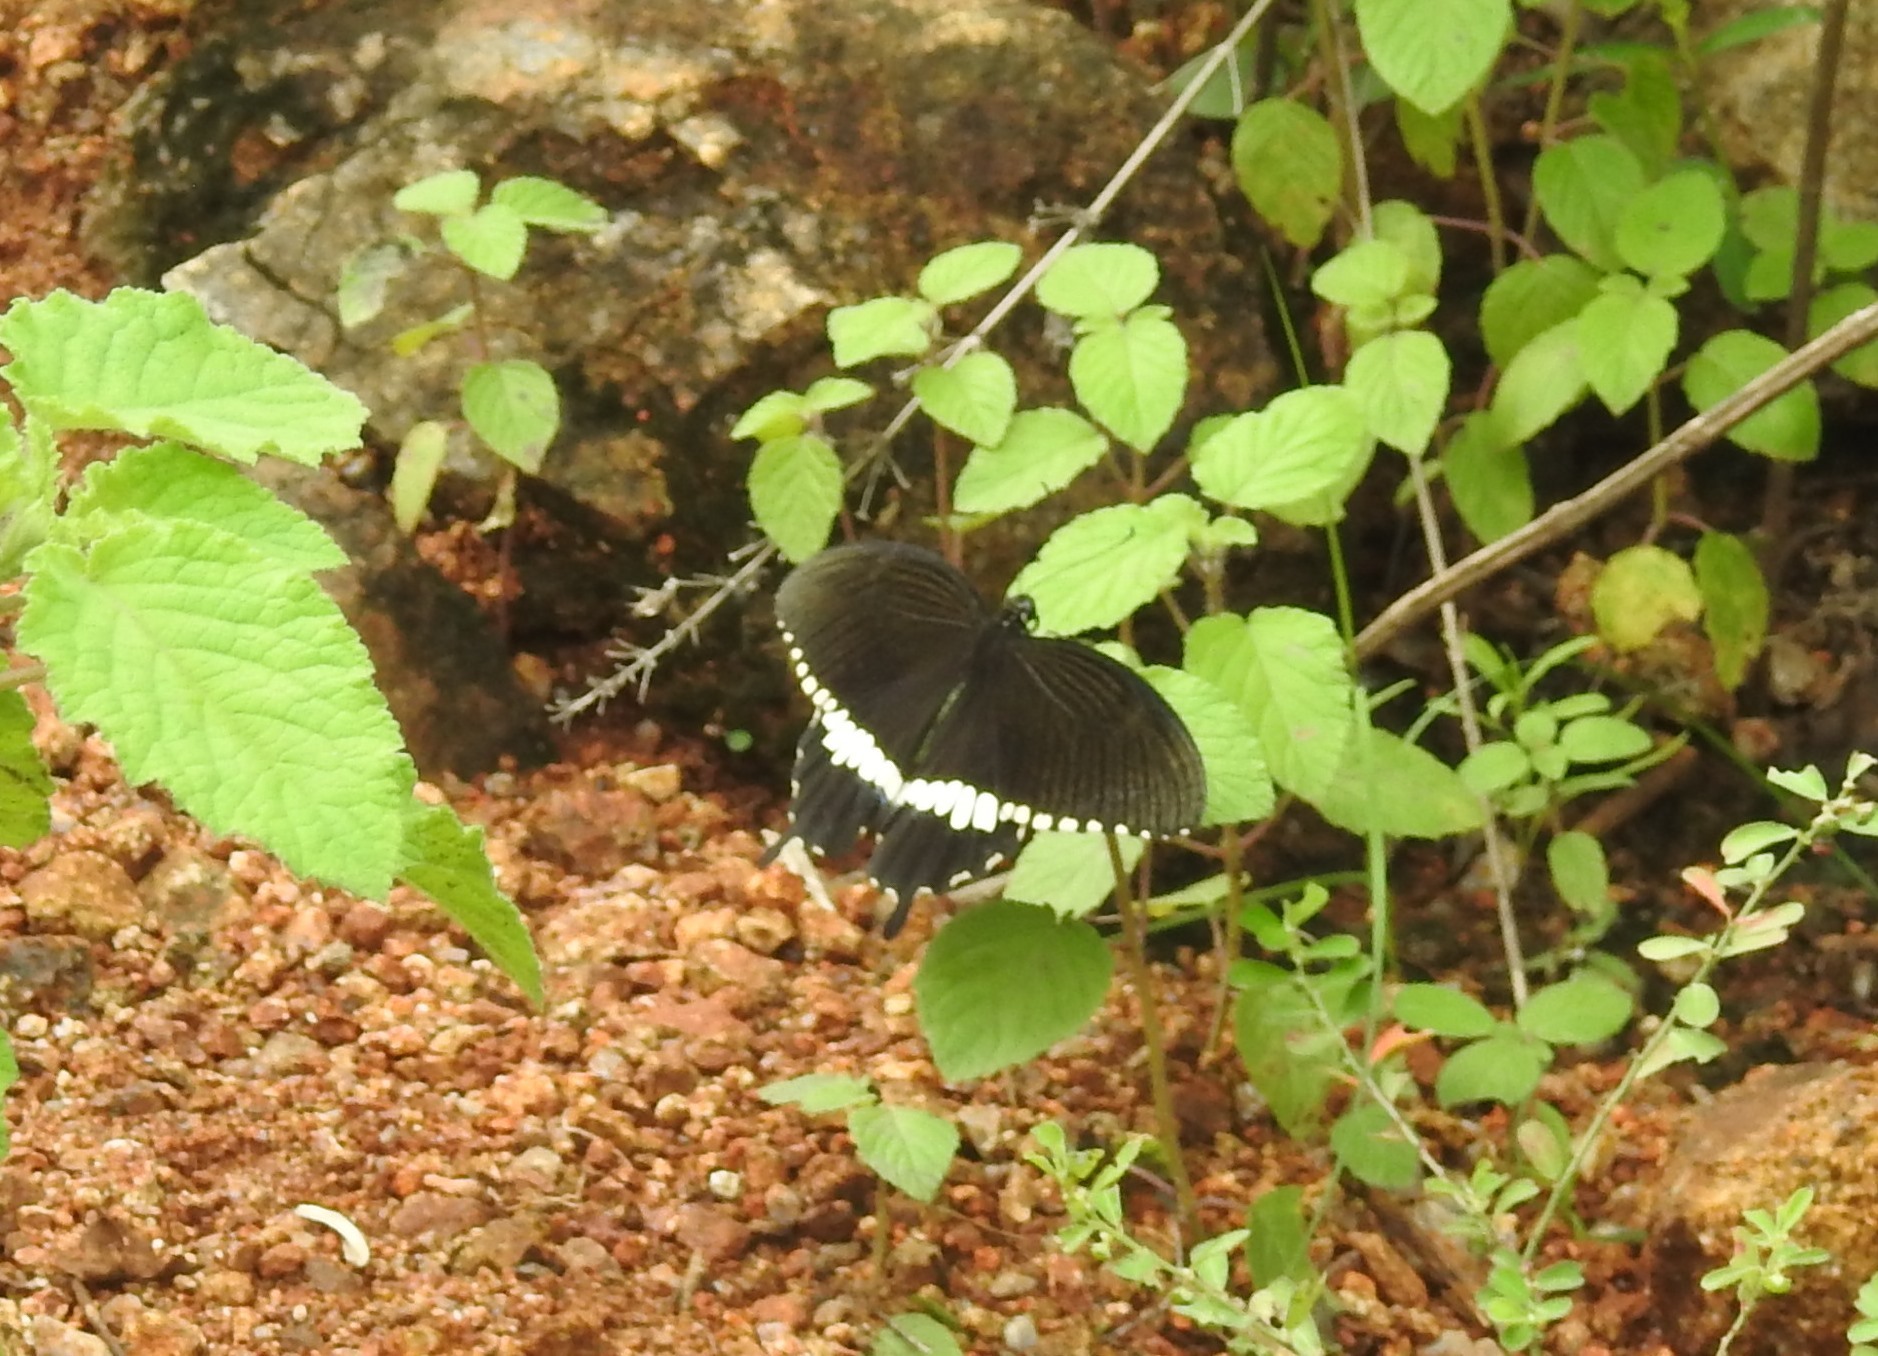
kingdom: Animalia
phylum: Arthropoda
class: Insecta
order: Lepidoptera
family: Papilionidae
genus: Papilio
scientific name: Papilio polytes
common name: Common mormon
